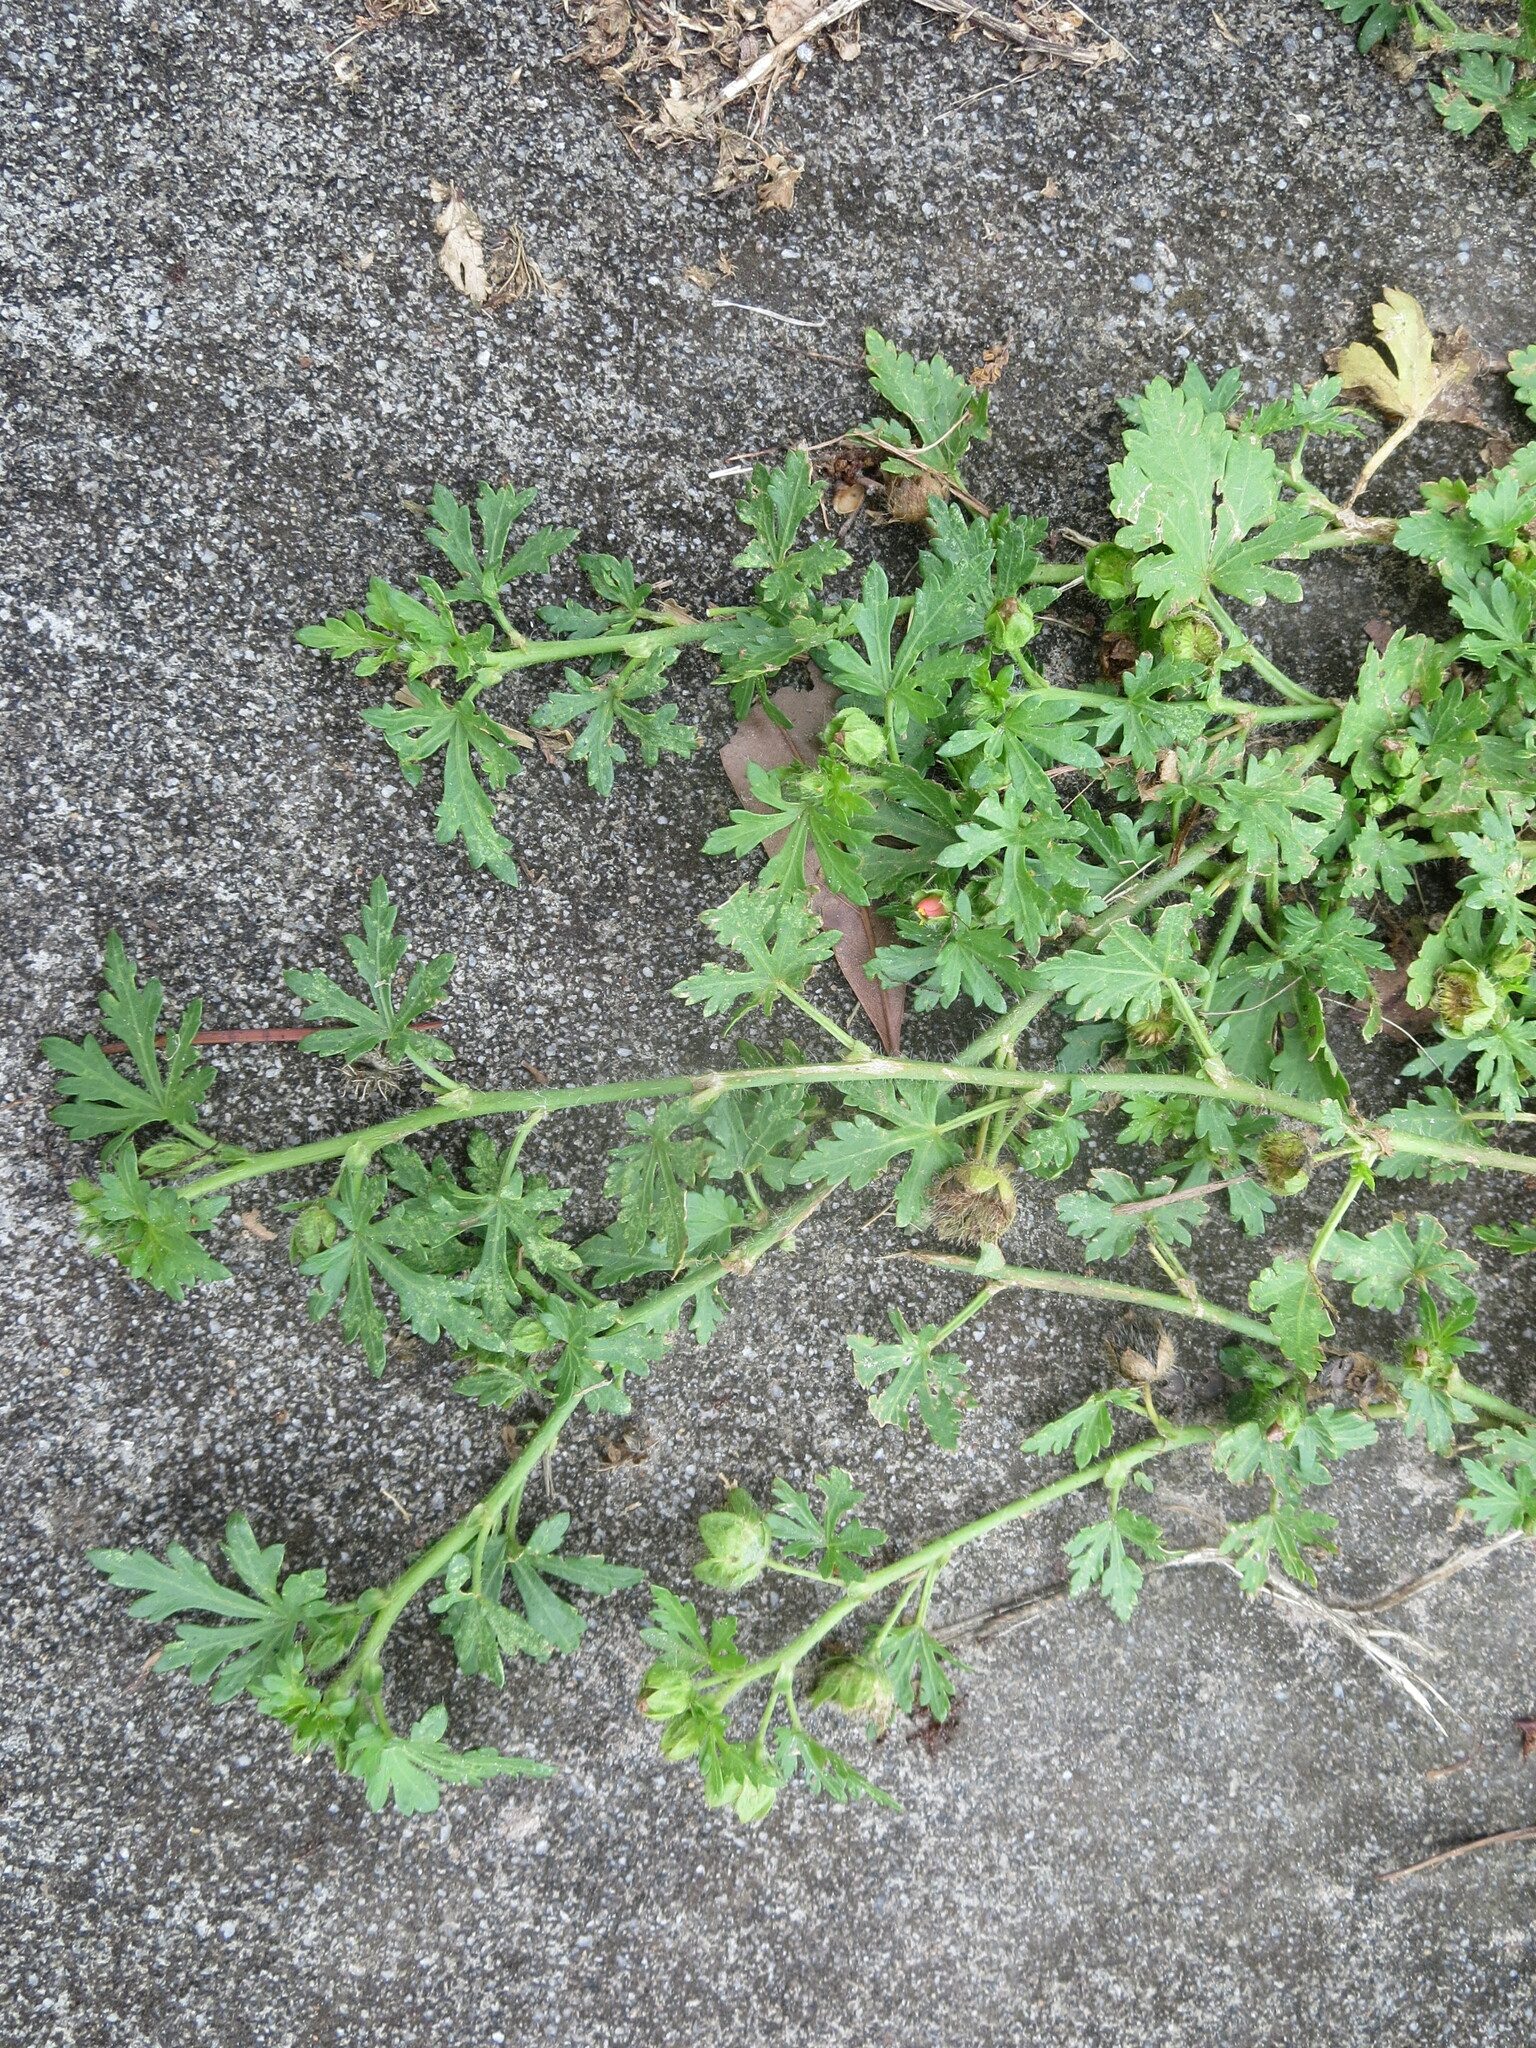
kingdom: Plantae
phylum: Tracheophyta
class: Magnoliopsida
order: Malvales
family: Malvaceae
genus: Modiola
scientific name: Modiola caroliniana
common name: Carolina bristlemallow
